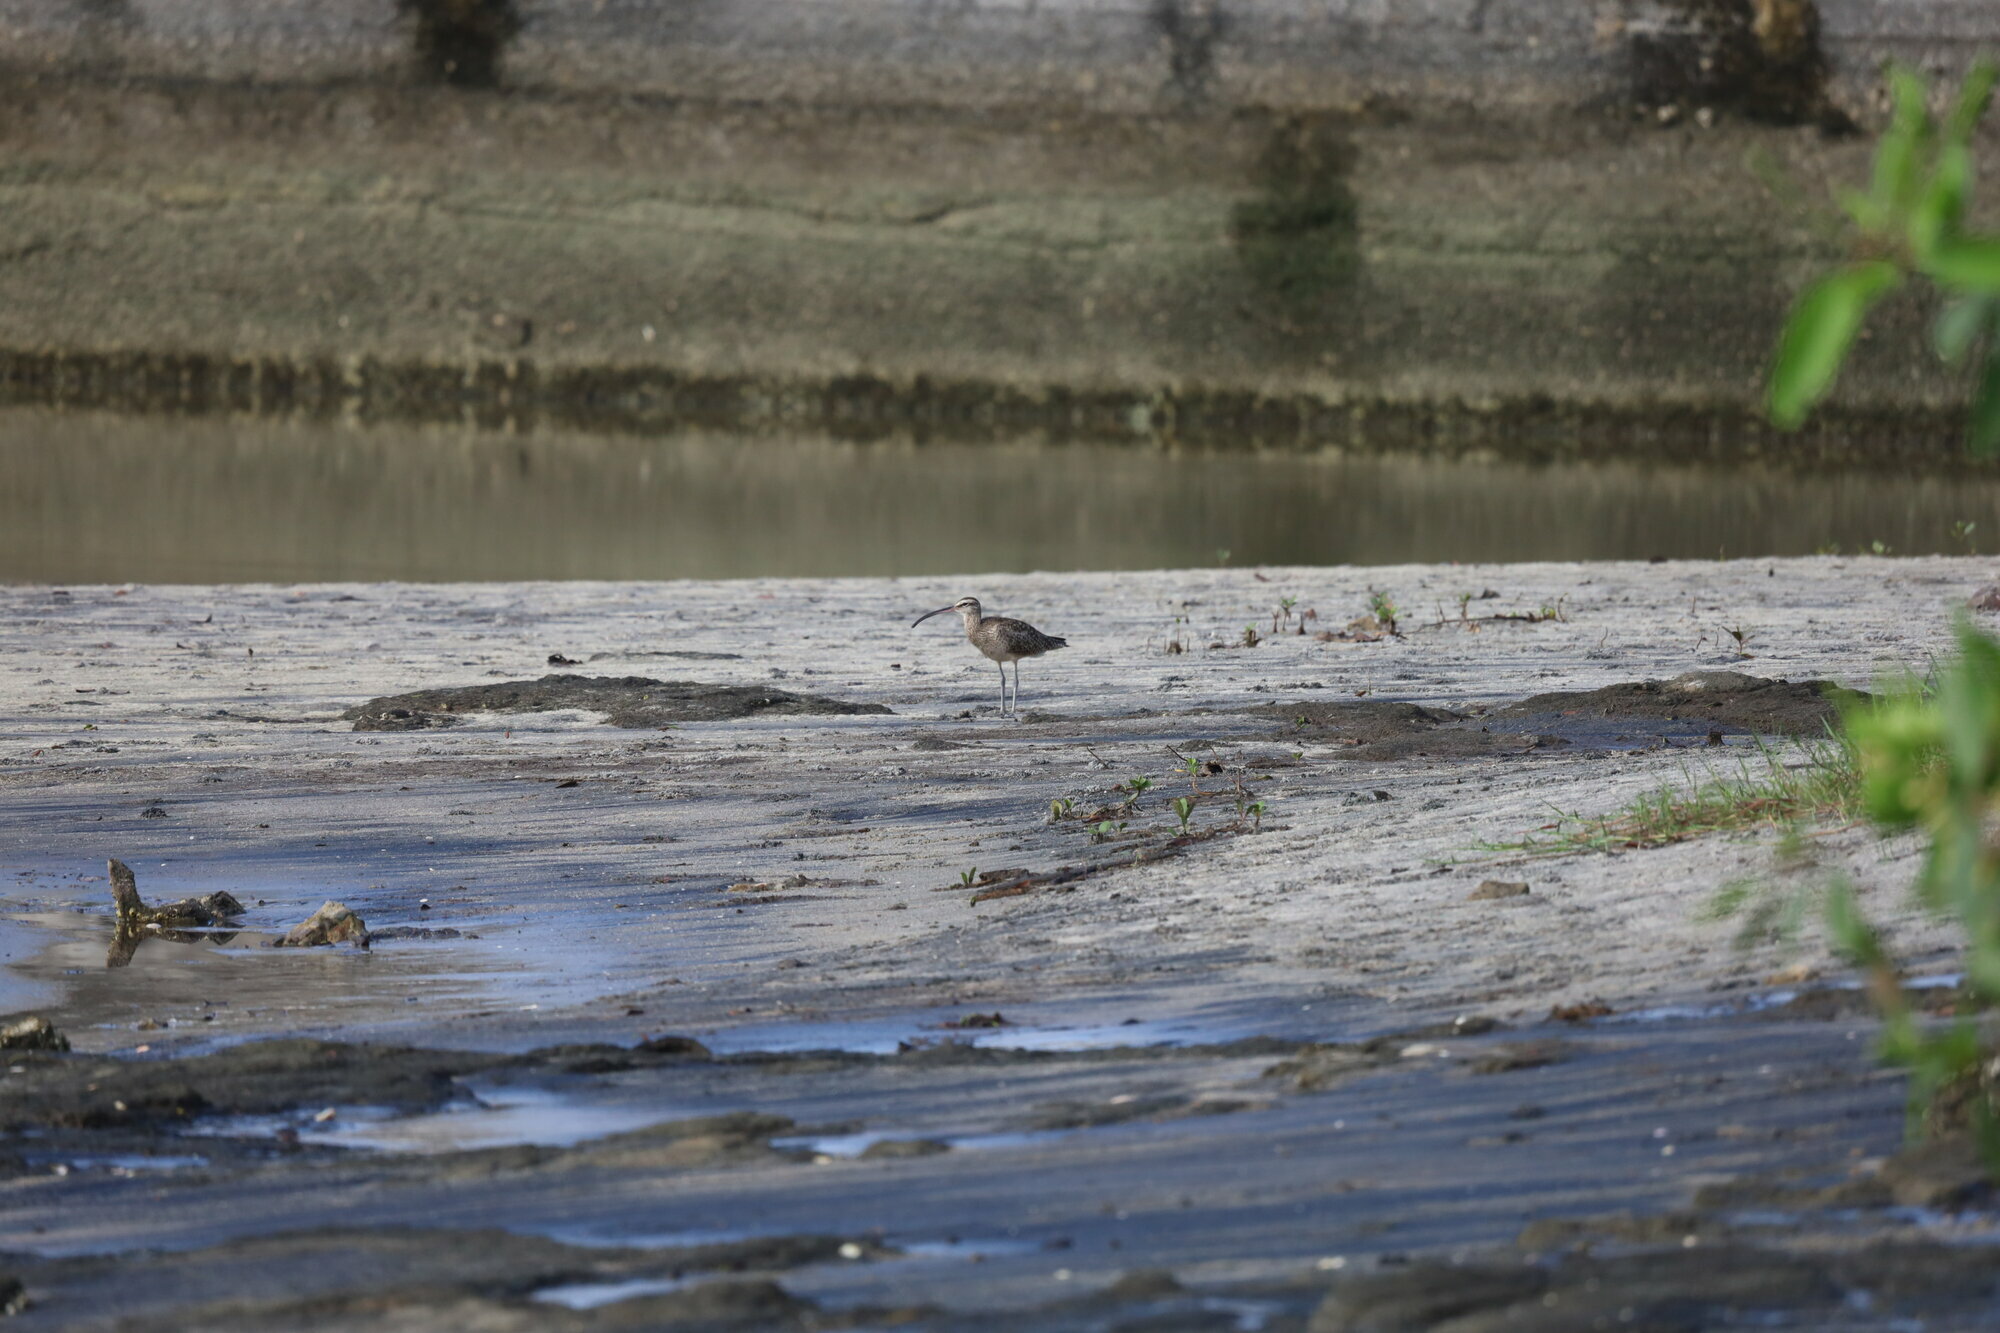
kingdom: Animalia
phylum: Chordata
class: Aves
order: Charadriiformes
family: Scolopacidae
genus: Numenius
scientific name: Numenius phaeopus
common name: Whimbrel
